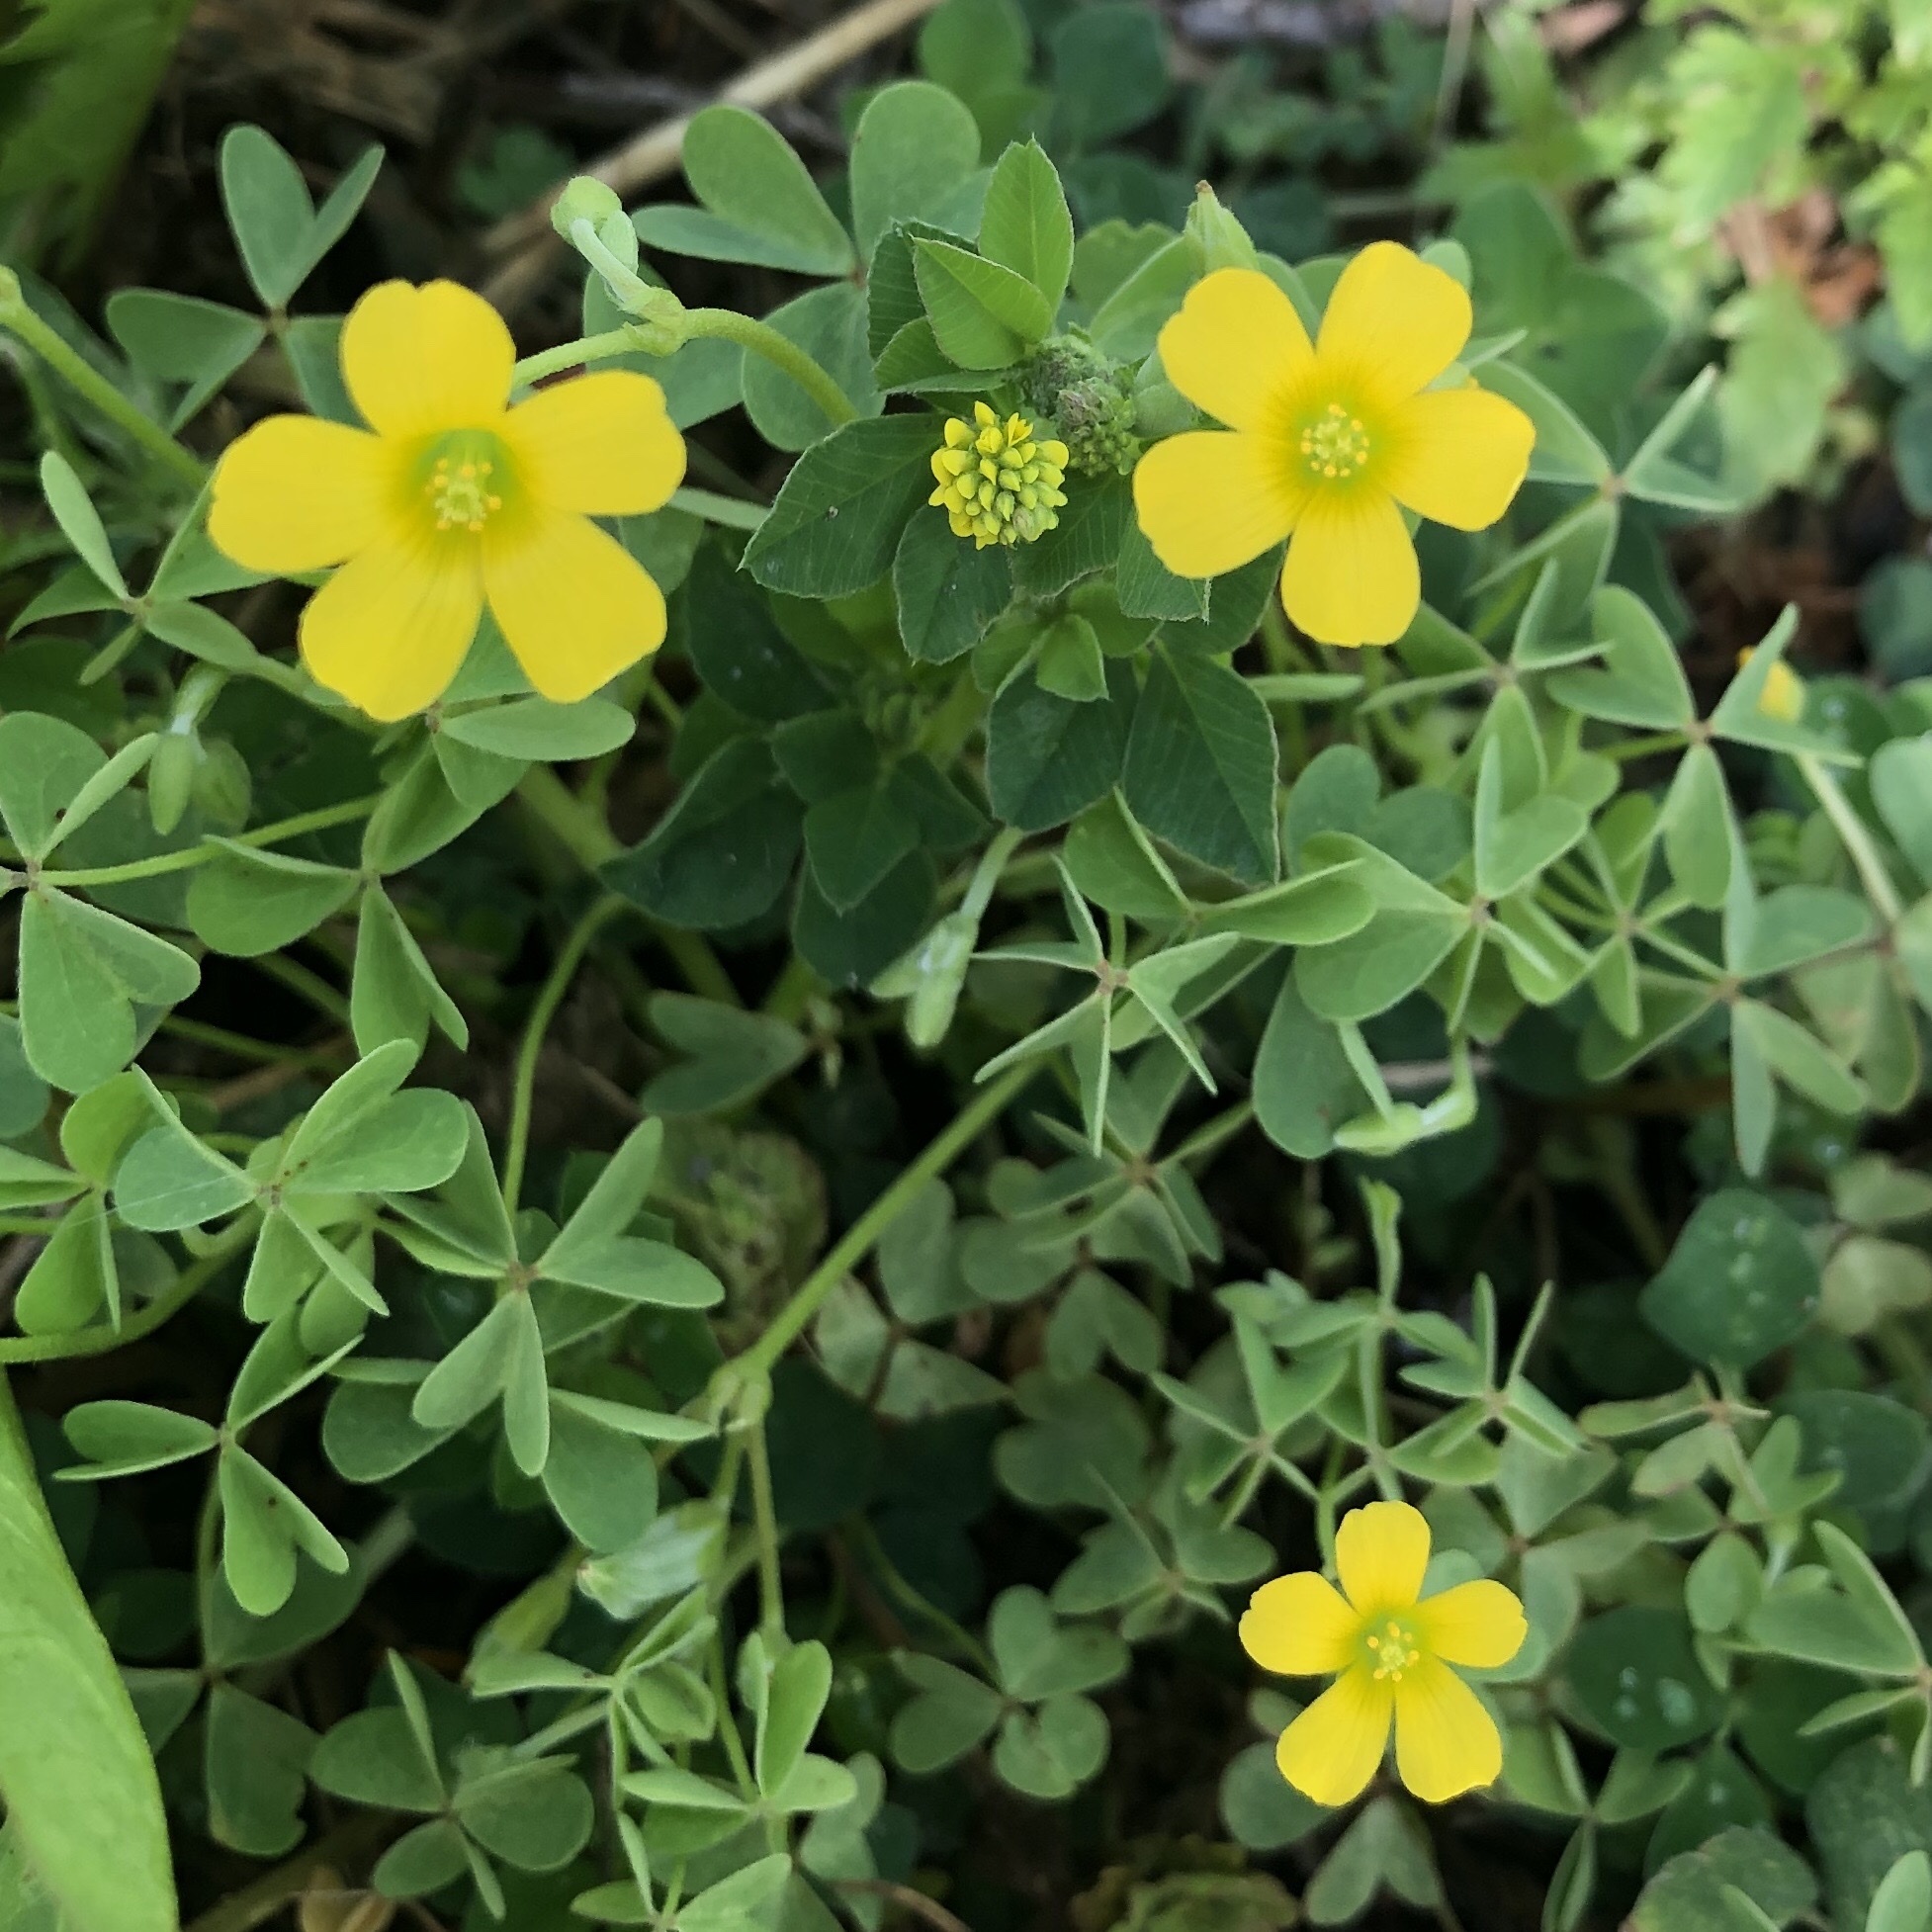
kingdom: Plantae
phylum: Tracheophyta
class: Magnoliopsida
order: Oxalidales
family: Oxalidaceae
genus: Oxalis
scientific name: Oxalis dillenii
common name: Sussex yellow-sorrel
